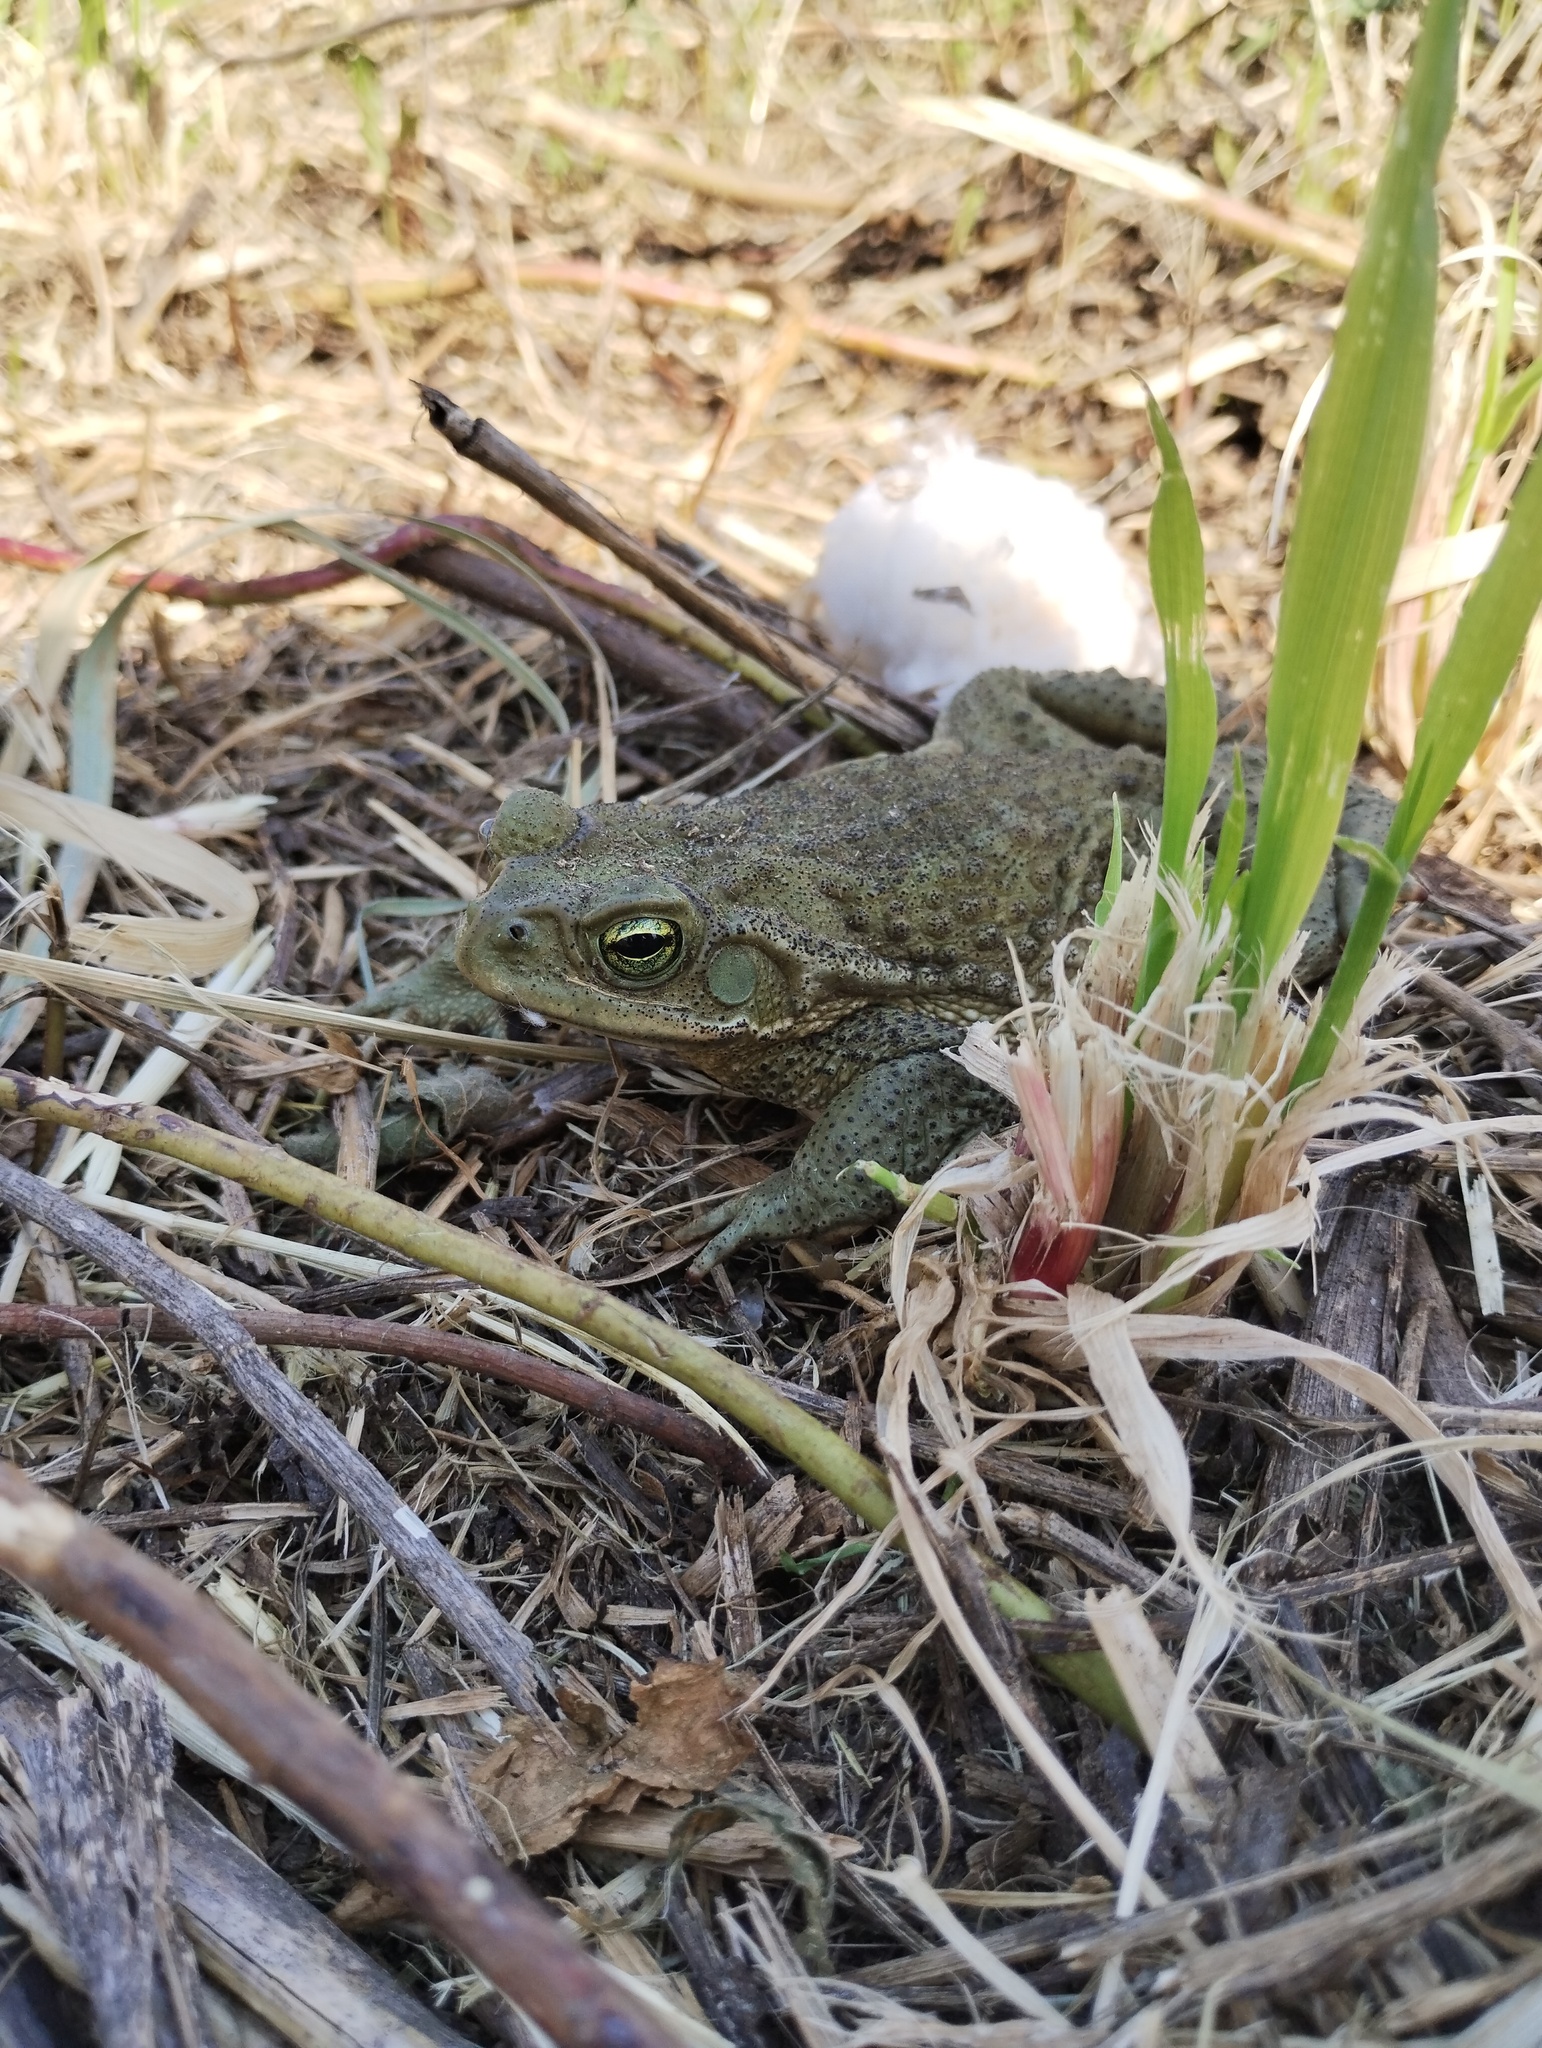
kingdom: Animalia
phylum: Chordata
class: Amphibia
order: Anura
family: Bufonidae
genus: Rhinella
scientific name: Rhinella arenarum
